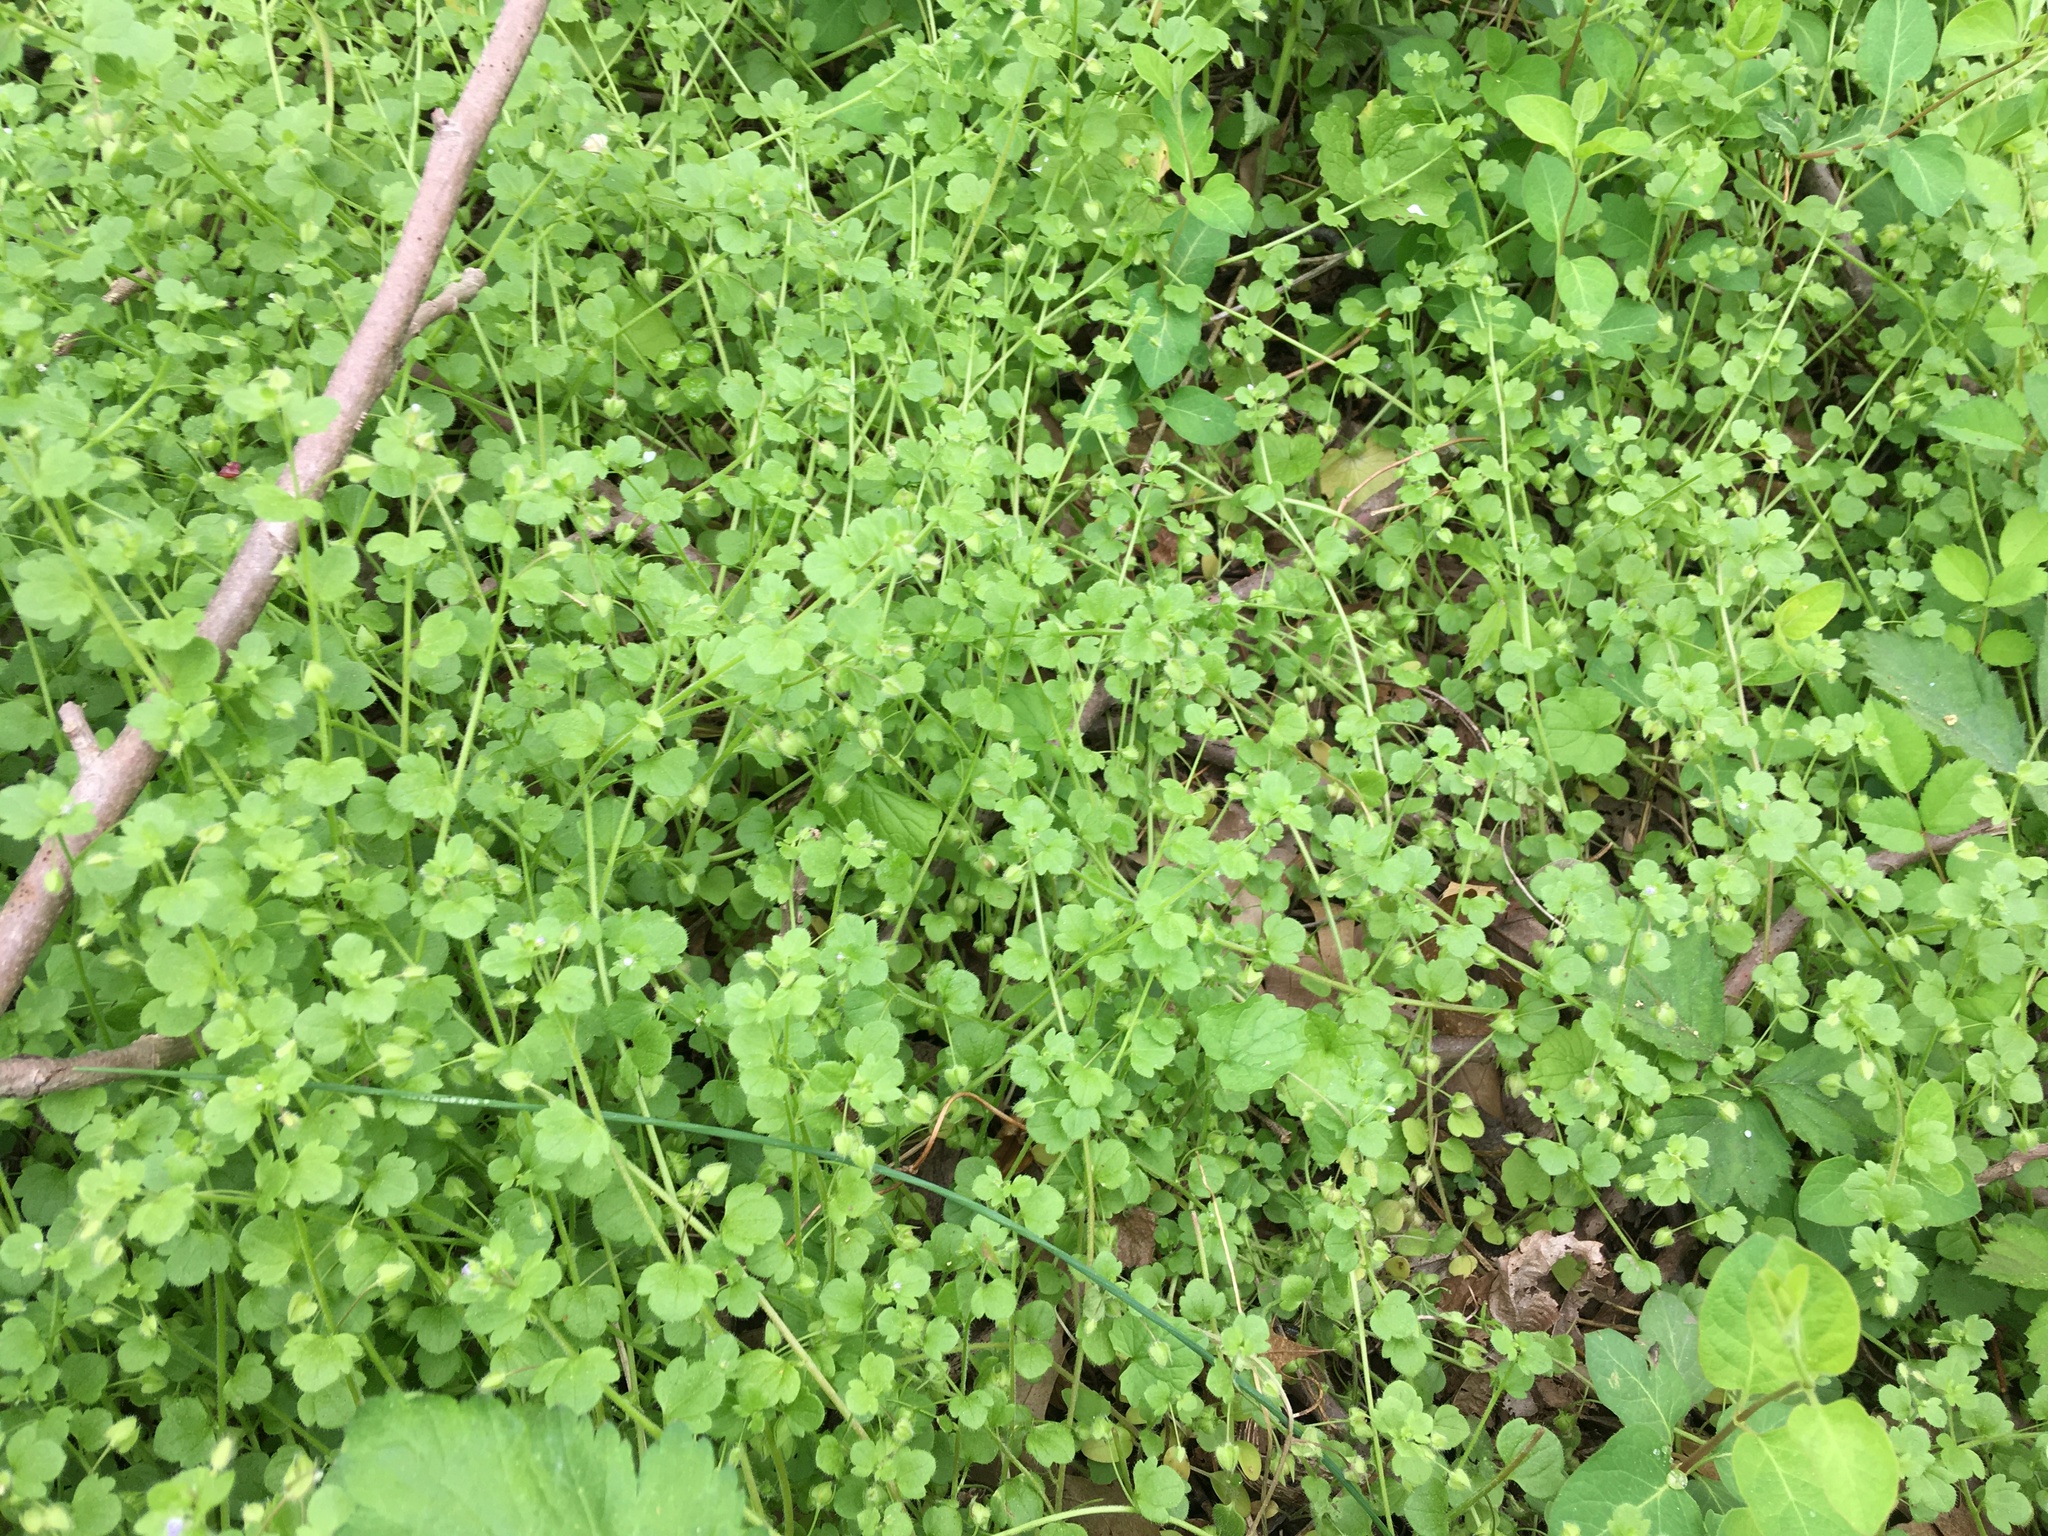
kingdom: Plantae
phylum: Tracheophyta
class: Magnoliopsida
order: Lamiales
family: Plantaginaceae
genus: Veronica
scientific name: Veronica hederifolia
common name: Ivy-leaved speedwell
